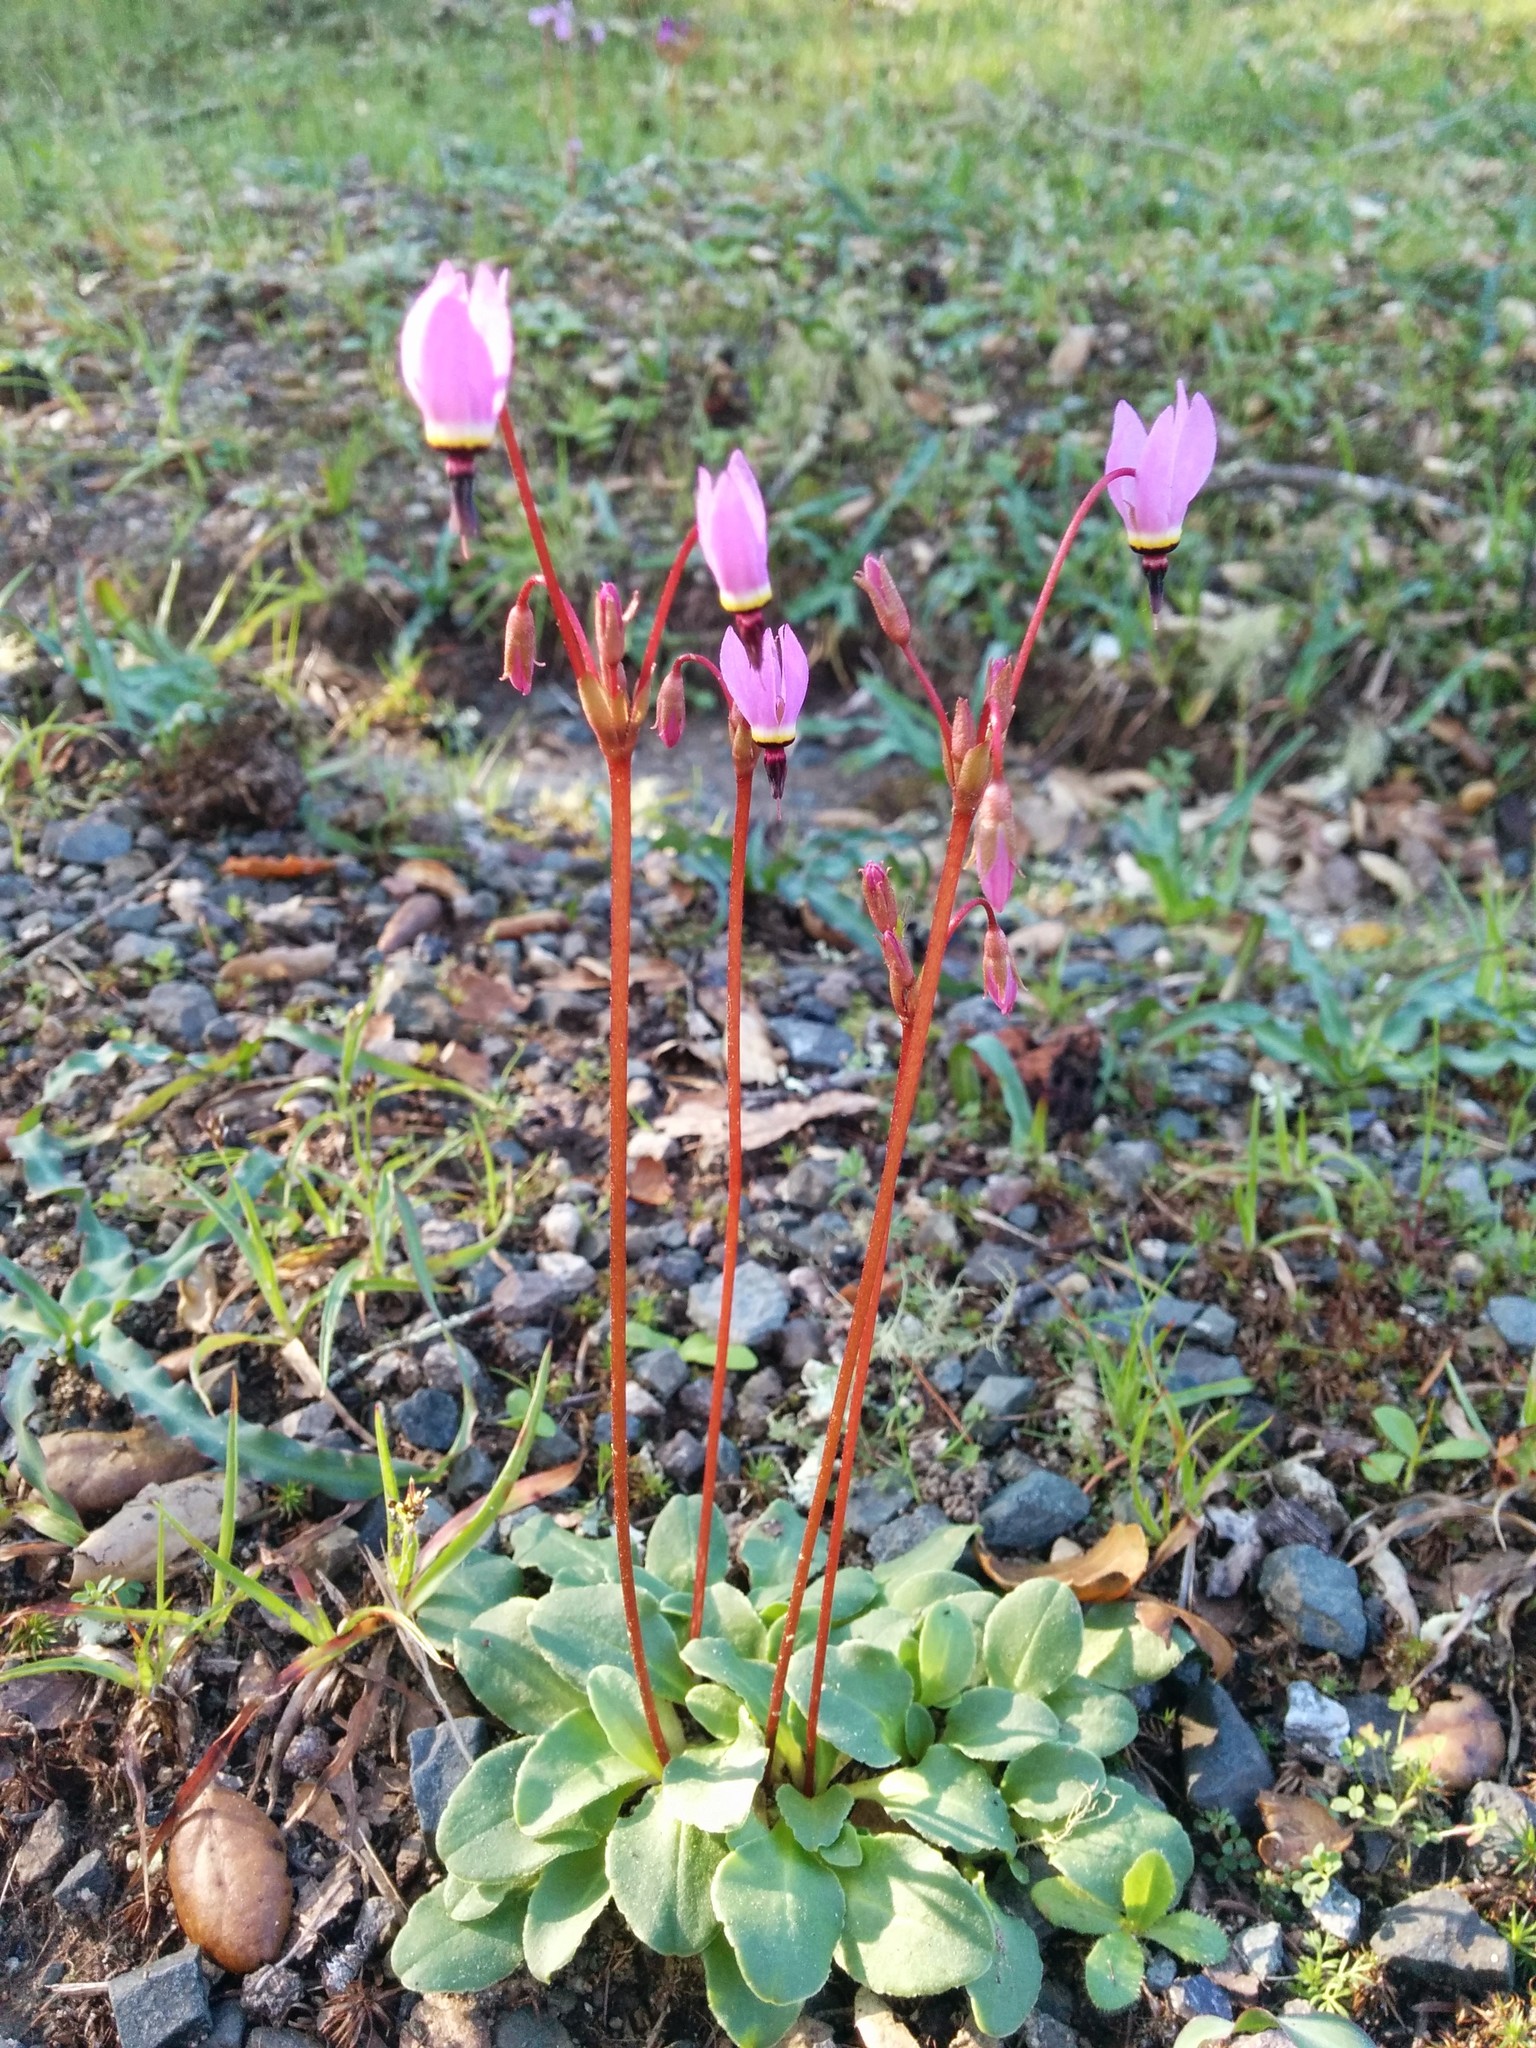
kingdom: Plantae
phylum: Tracheophyta
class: Magnoliopsida
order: Ericales
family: Primulaceae
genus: Dodecatheon
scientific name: Dodecatheon hendersonii
